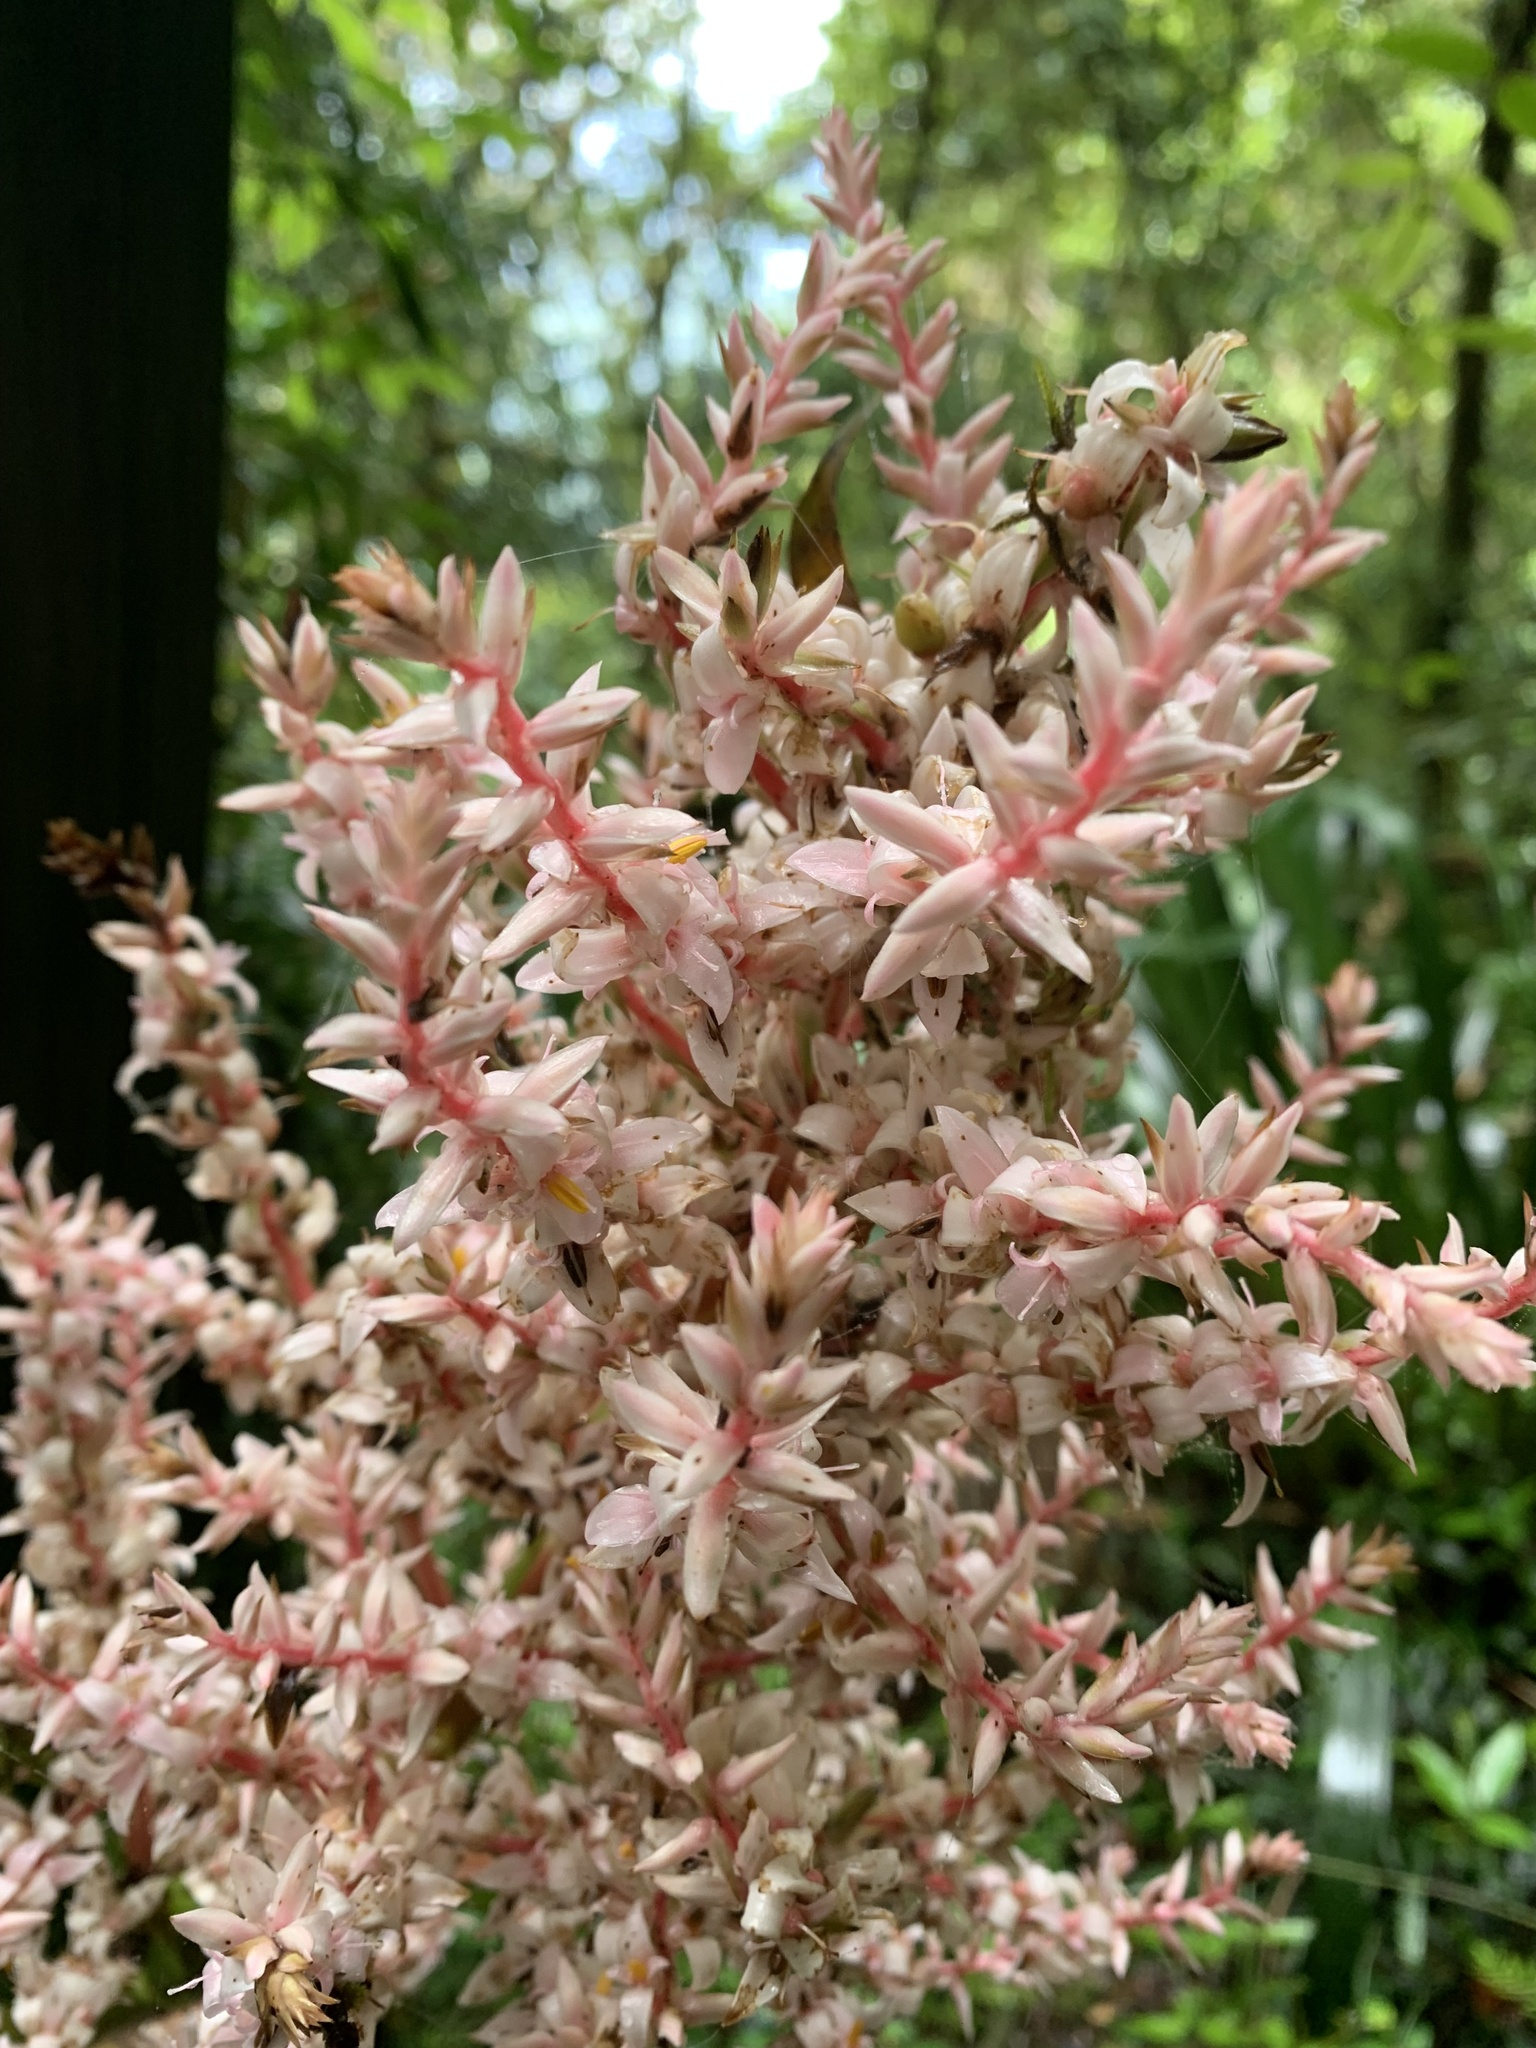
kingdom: Plantae
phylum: Tracheophyta
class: Liliopsida
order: Commelinales
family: Philydraceae
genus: Helmholtzia
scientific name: Helmholtzia glaberrima
